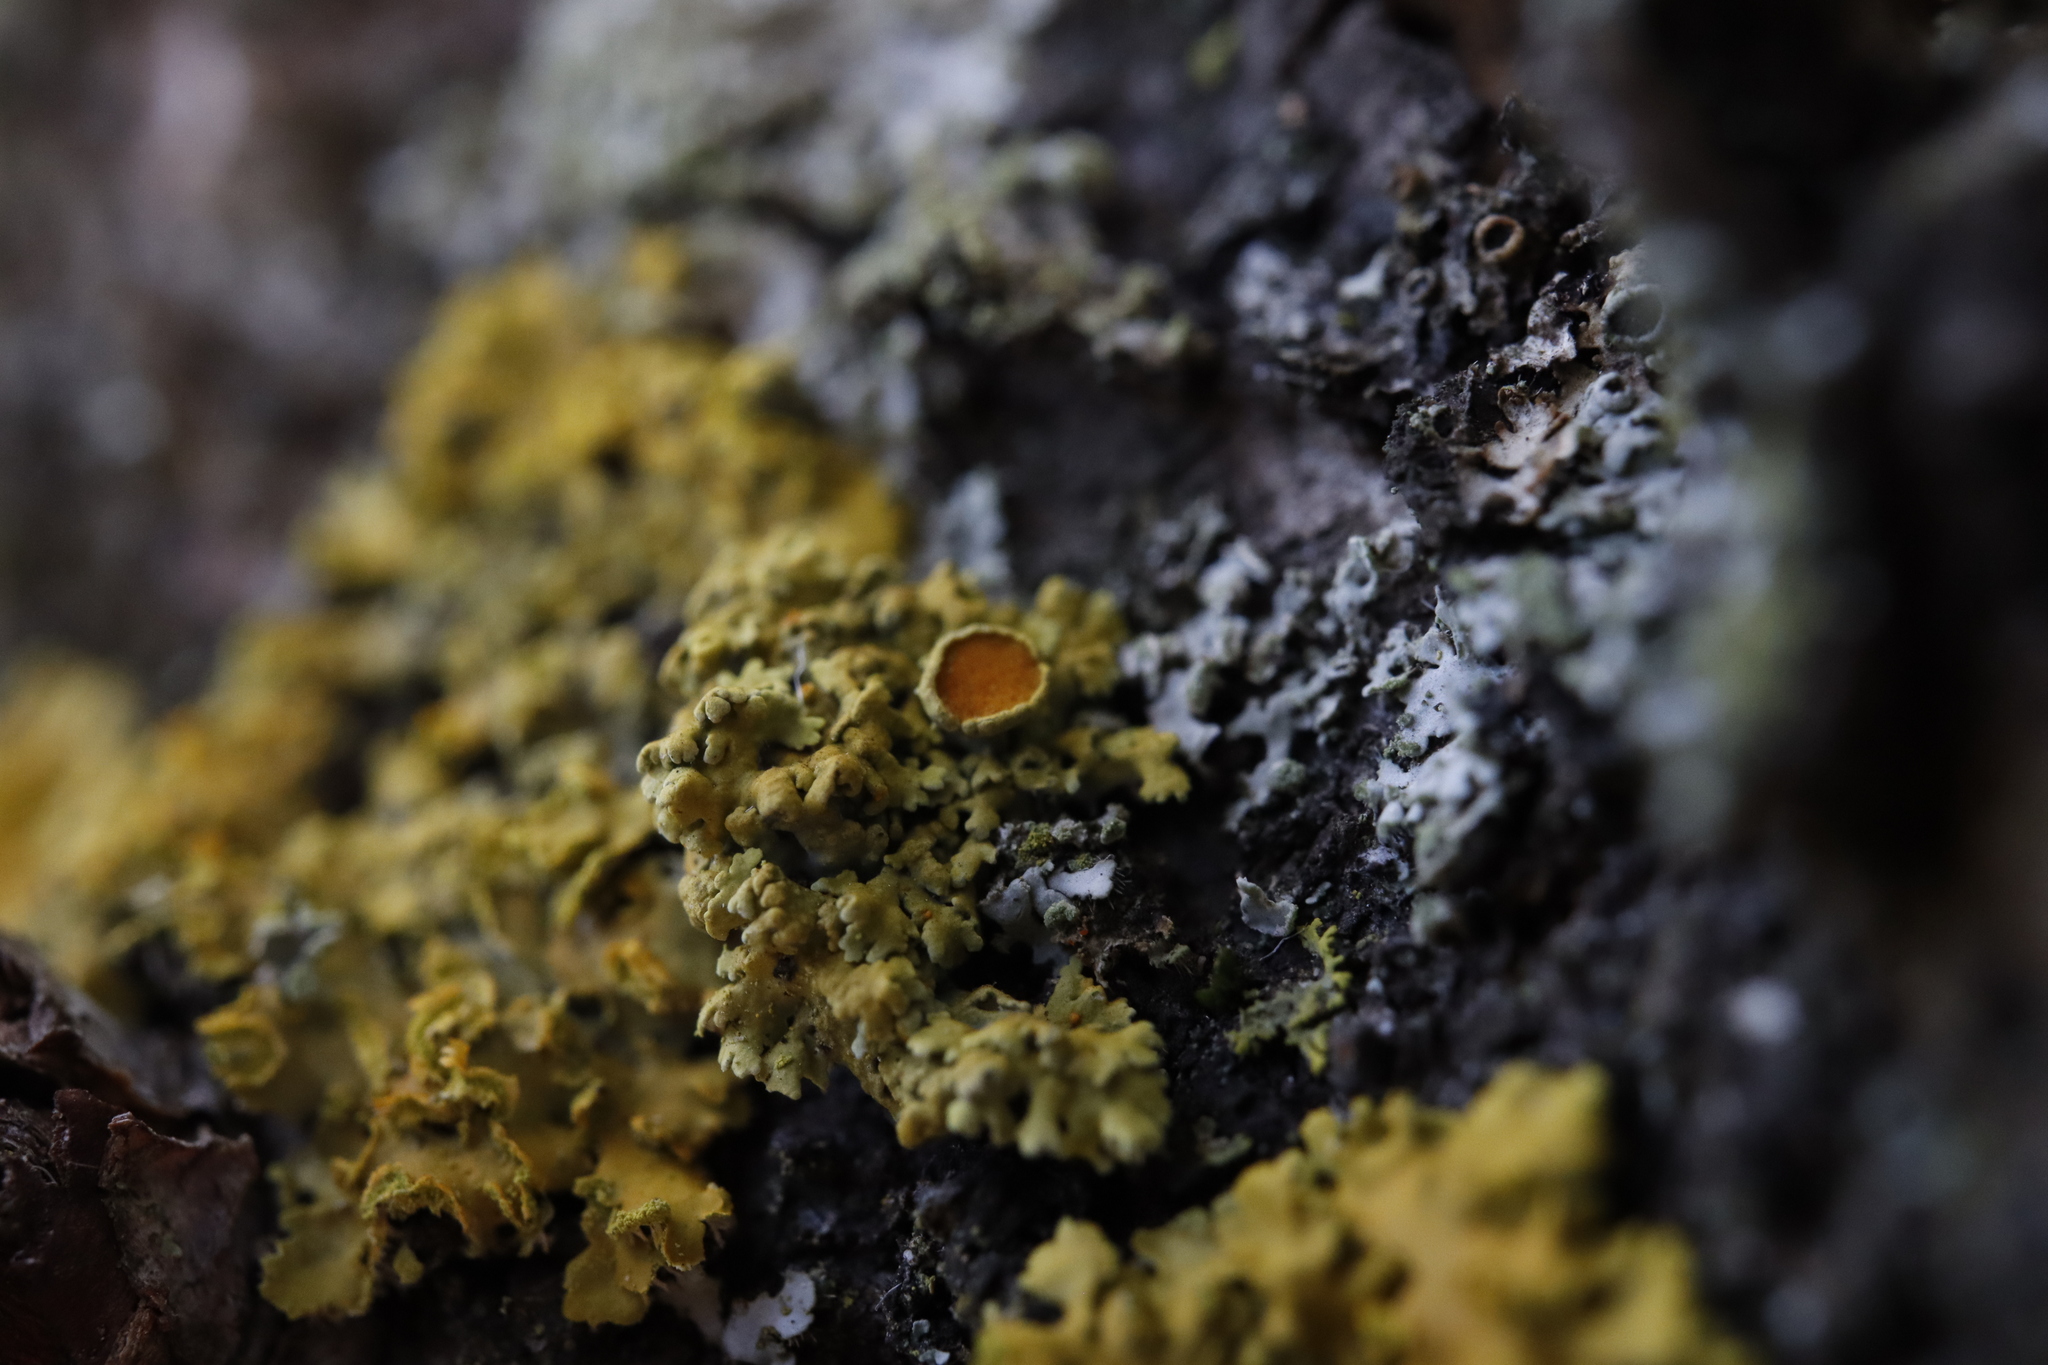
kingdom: Fungi
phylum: Ascomycota
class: Lecanoromycetes
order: Teloschistales
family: Teloschistaceae
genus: Oxneria
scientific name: Oxneria fallax
